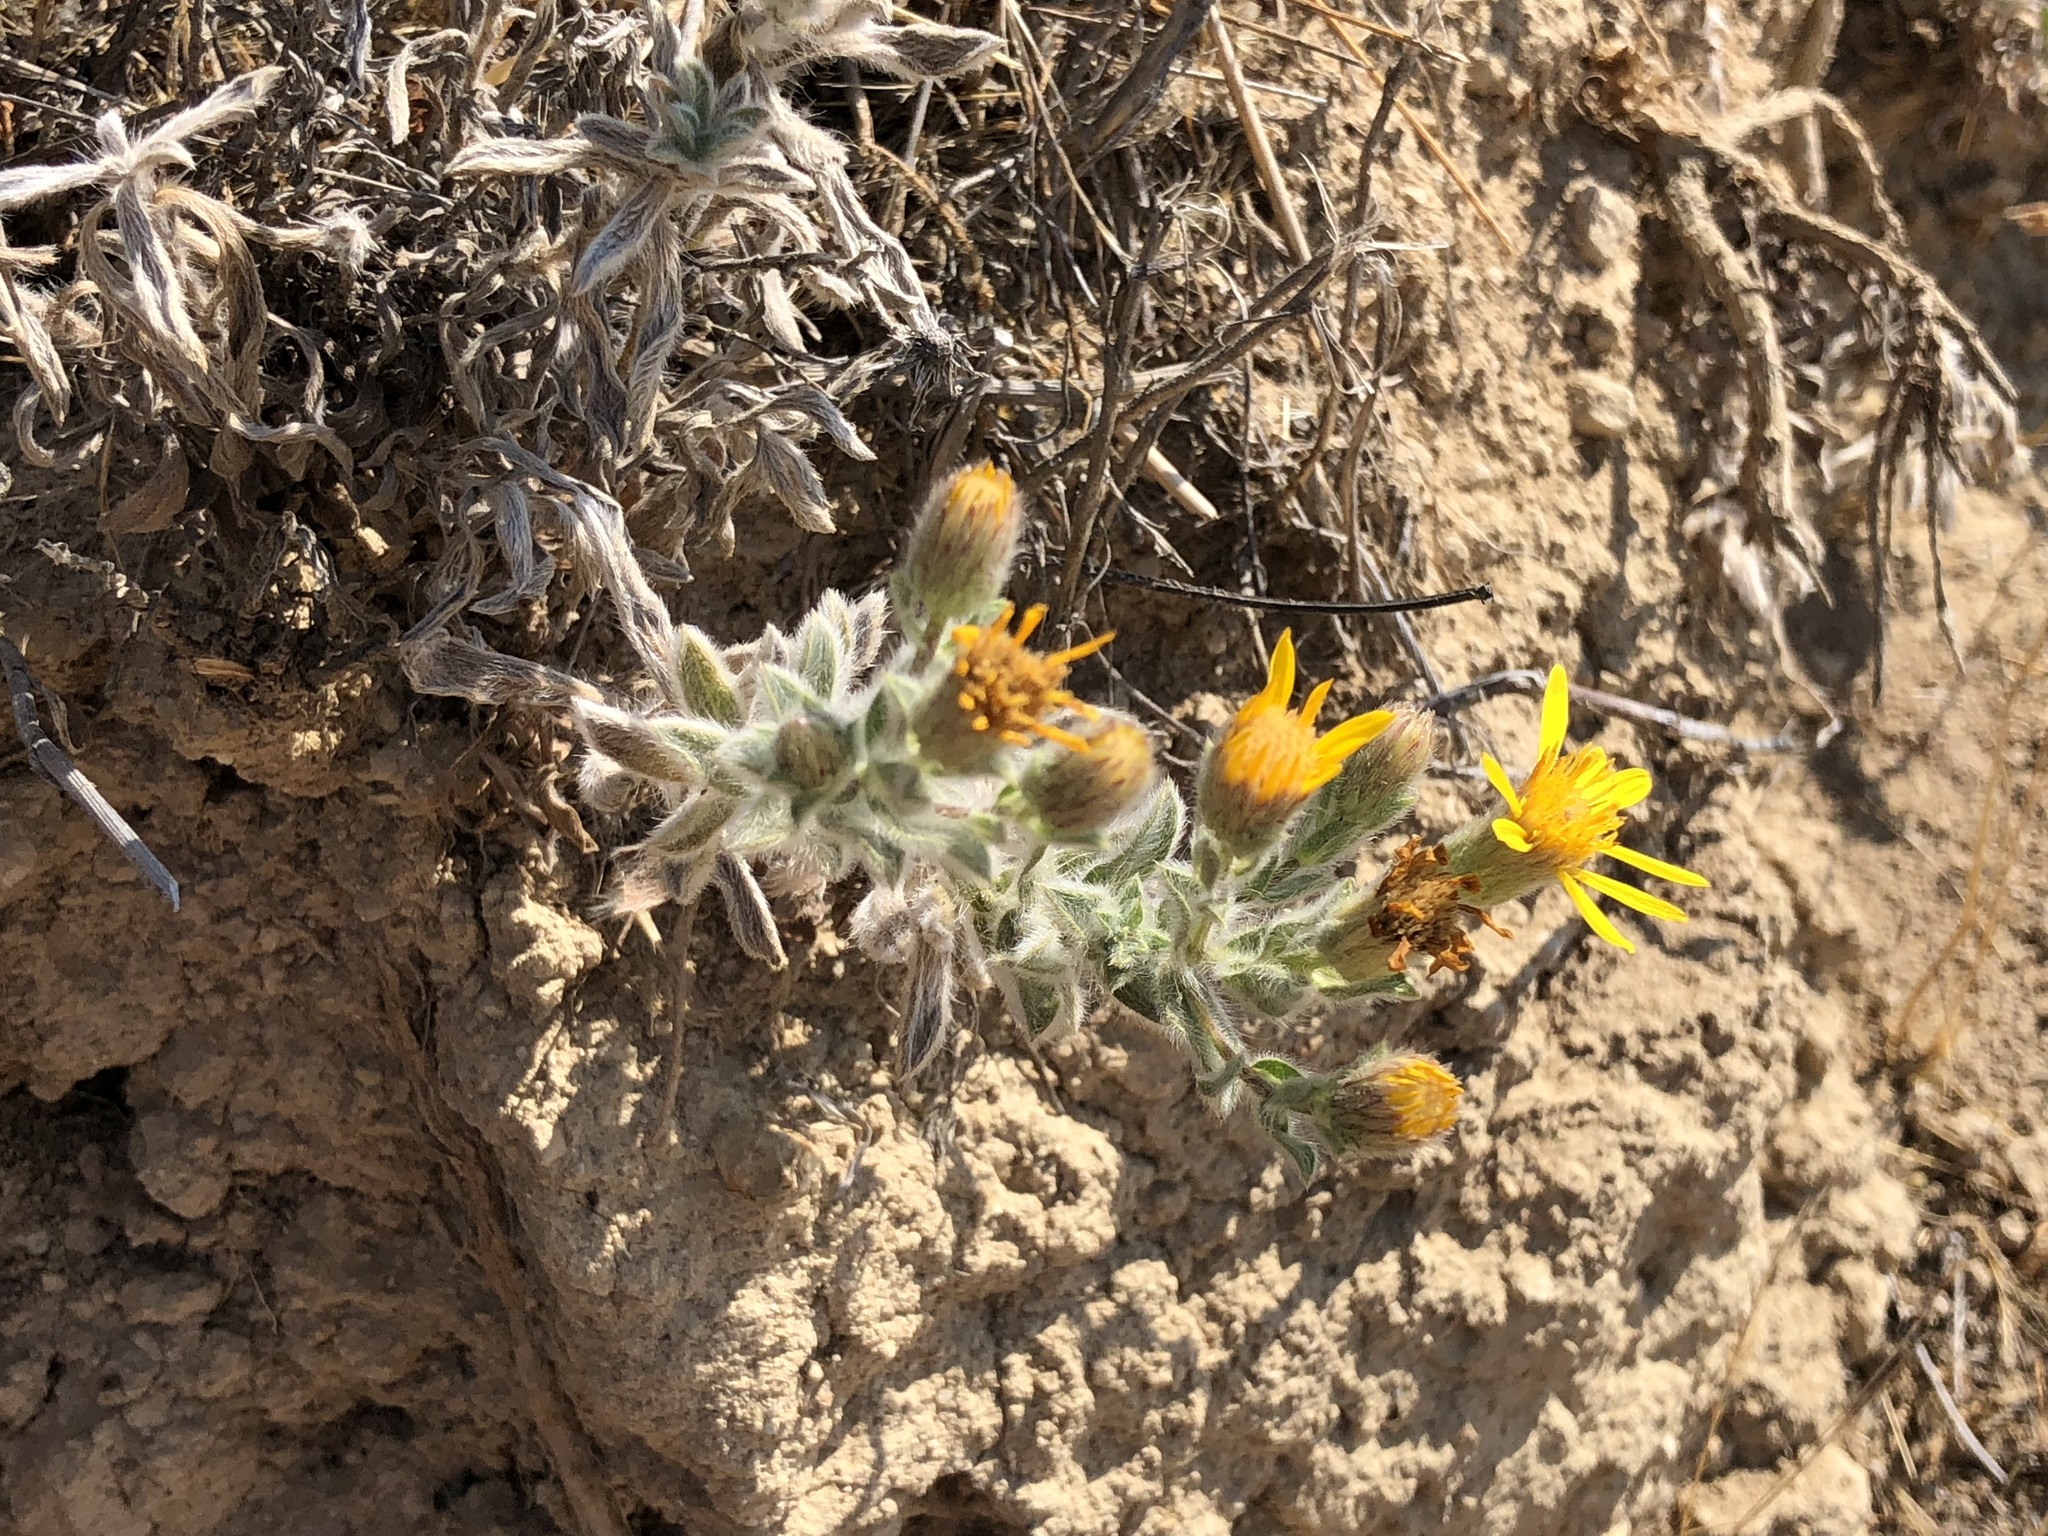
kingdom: Plantae
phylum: Tracheophyta
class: Magnoliopsida
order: Asterales
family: Asteraceae
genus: Heterotheca
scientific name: Heterotheca sessiliflora
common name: Sessile-flower golden-aster
